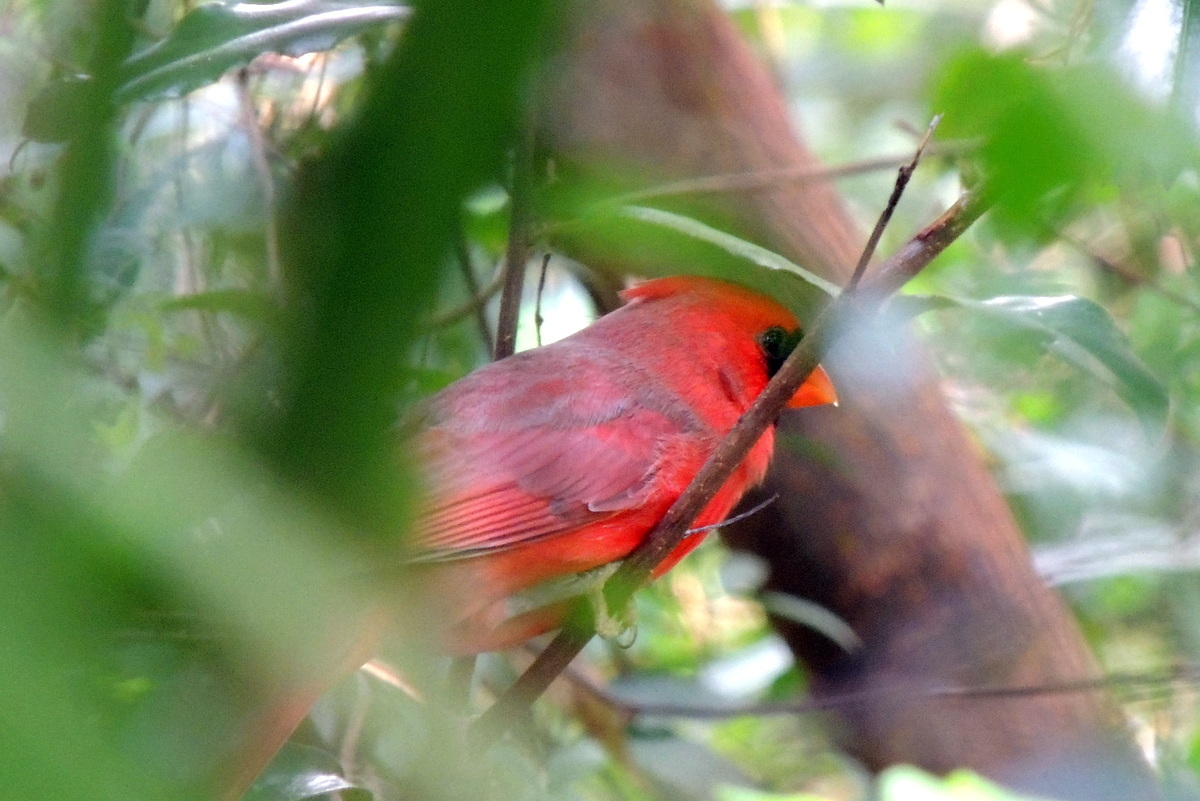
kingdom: Animalia
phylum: Chordata
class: Aves
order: Passeriformes
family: Cardinalidae
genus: Cardinalis
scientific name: Cardinalis cardinalis
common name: Northern cardinal
